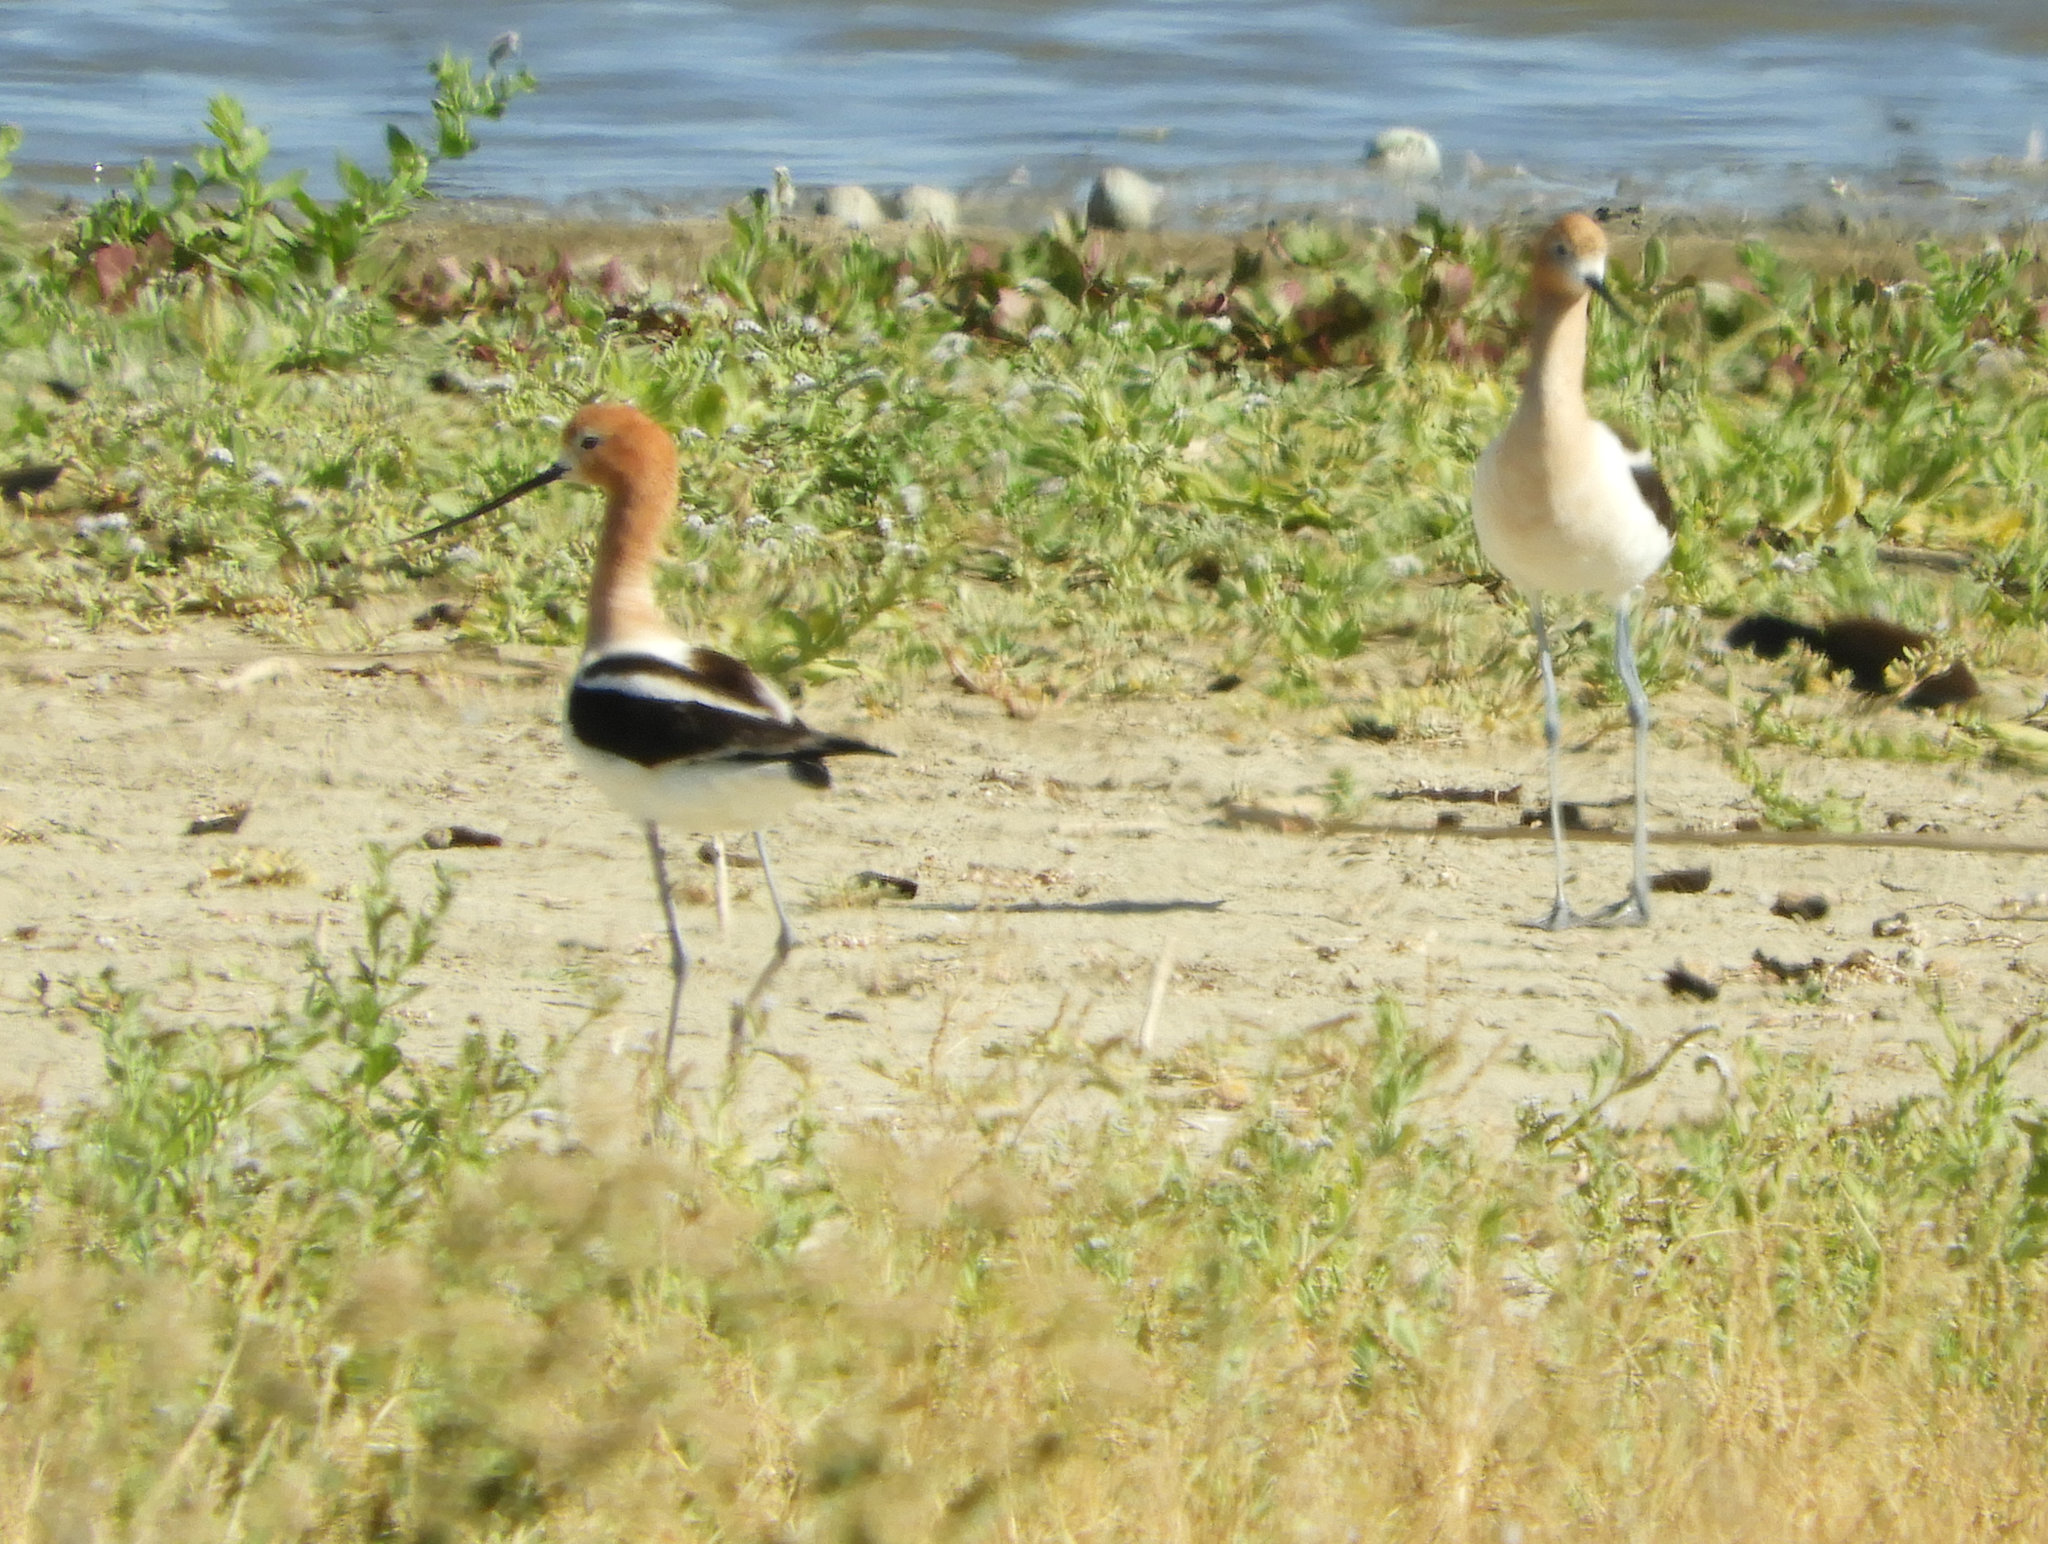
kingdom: Animalia
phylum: Chordata
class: Aves
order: Charadriiformes
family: Recurvirostridae
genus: Recurvirostra
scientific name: Recurvirostra americana
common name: American avocet
